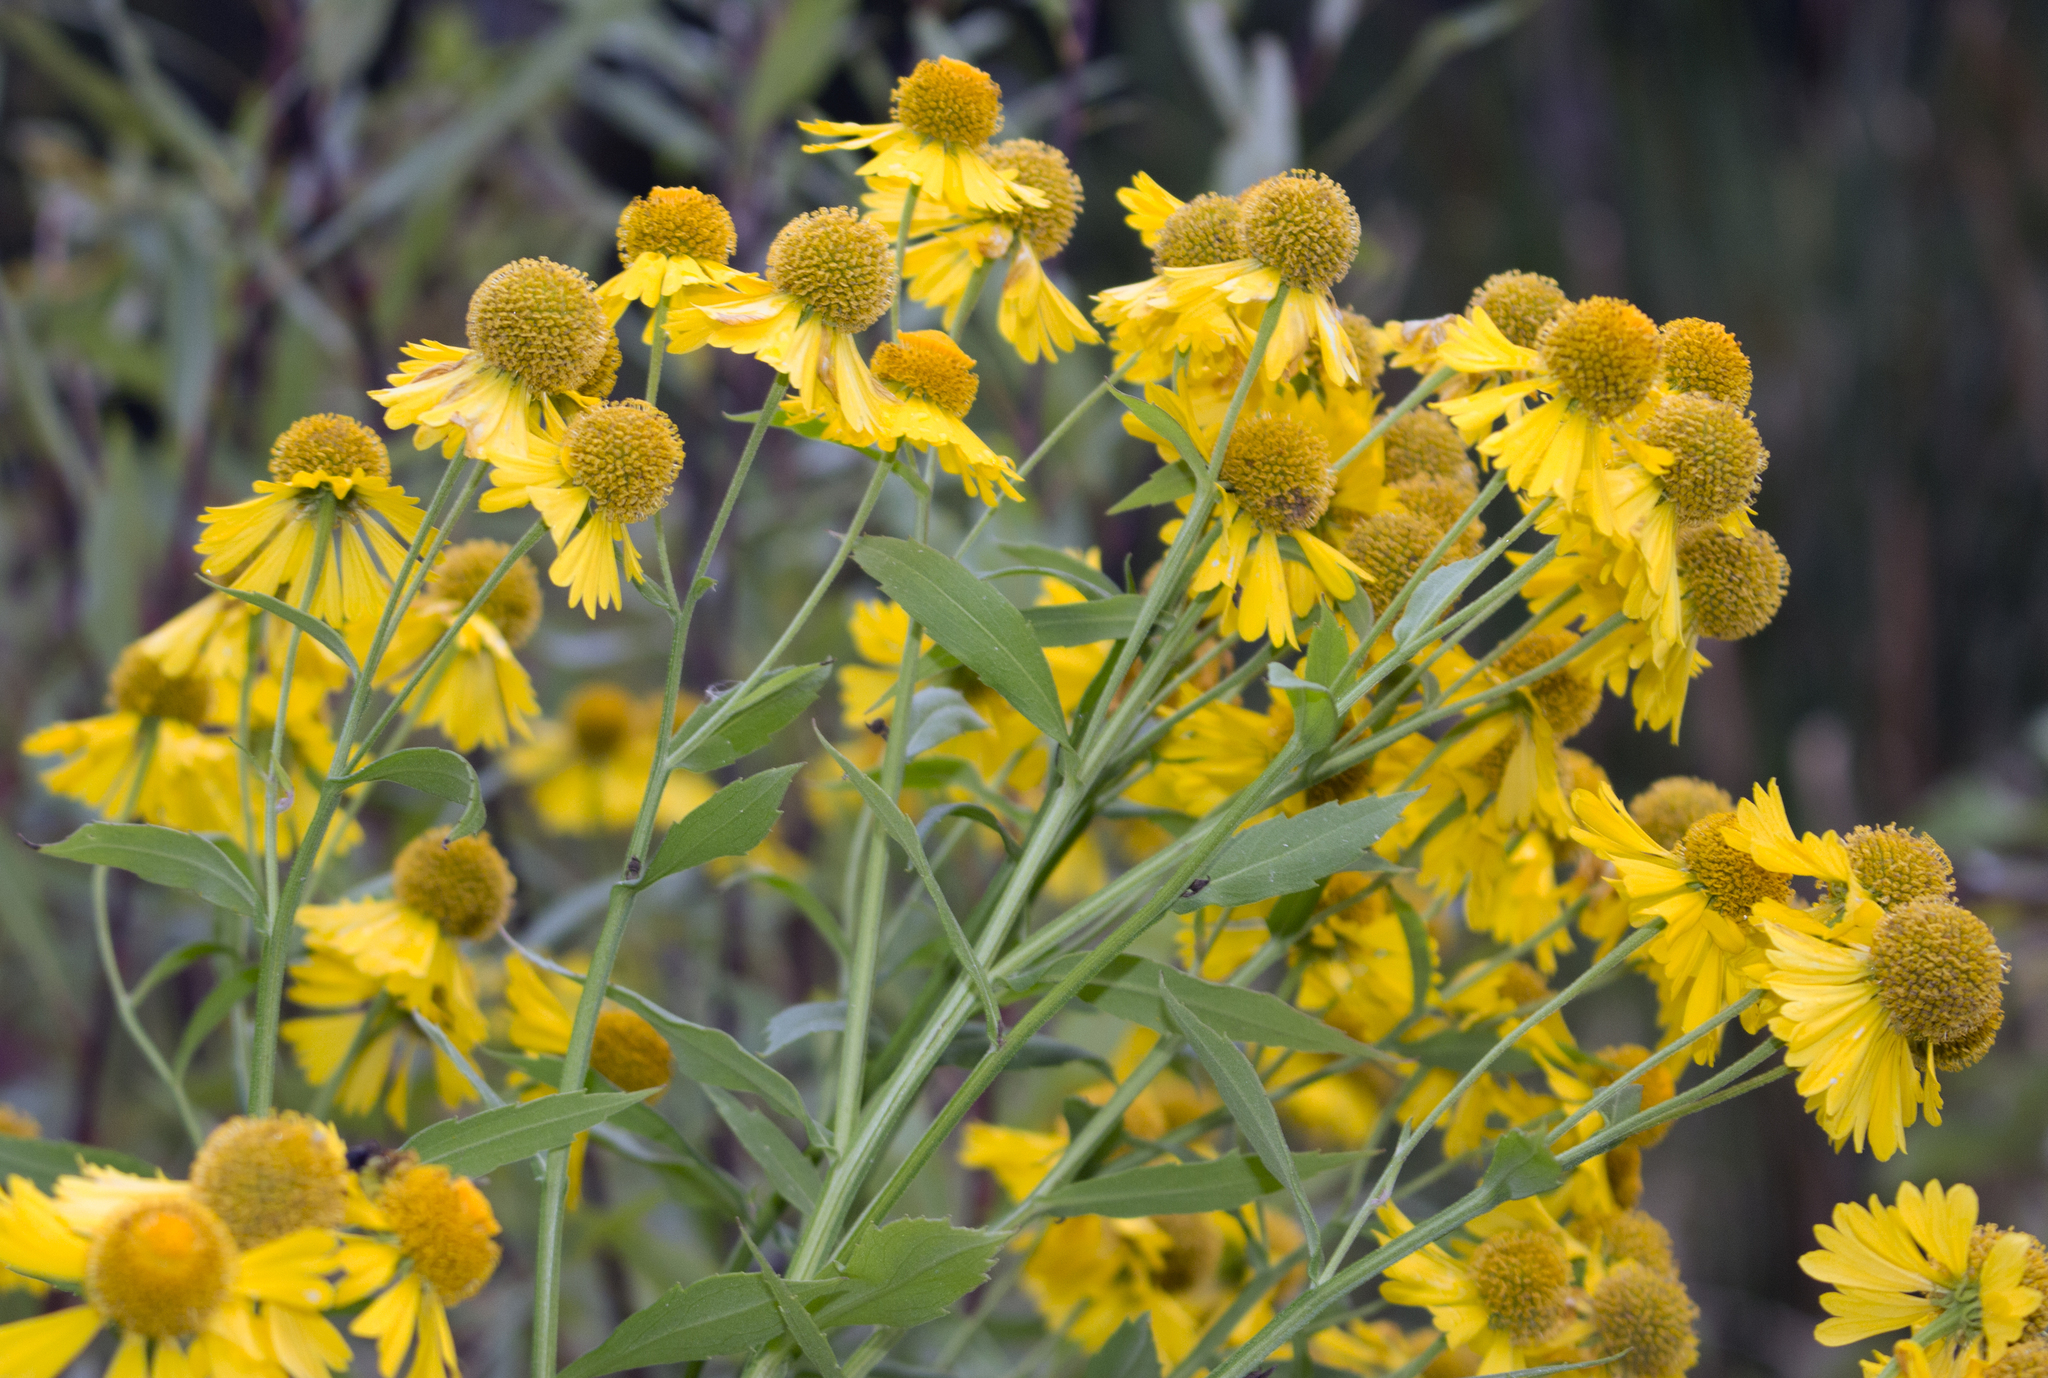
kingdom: Plantae
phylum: Tracheophyta
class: Magnoliopsida
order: Asterales
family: Asteraceae
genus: Helenium
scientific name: Helenium autumnale
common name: Sneezeweed
